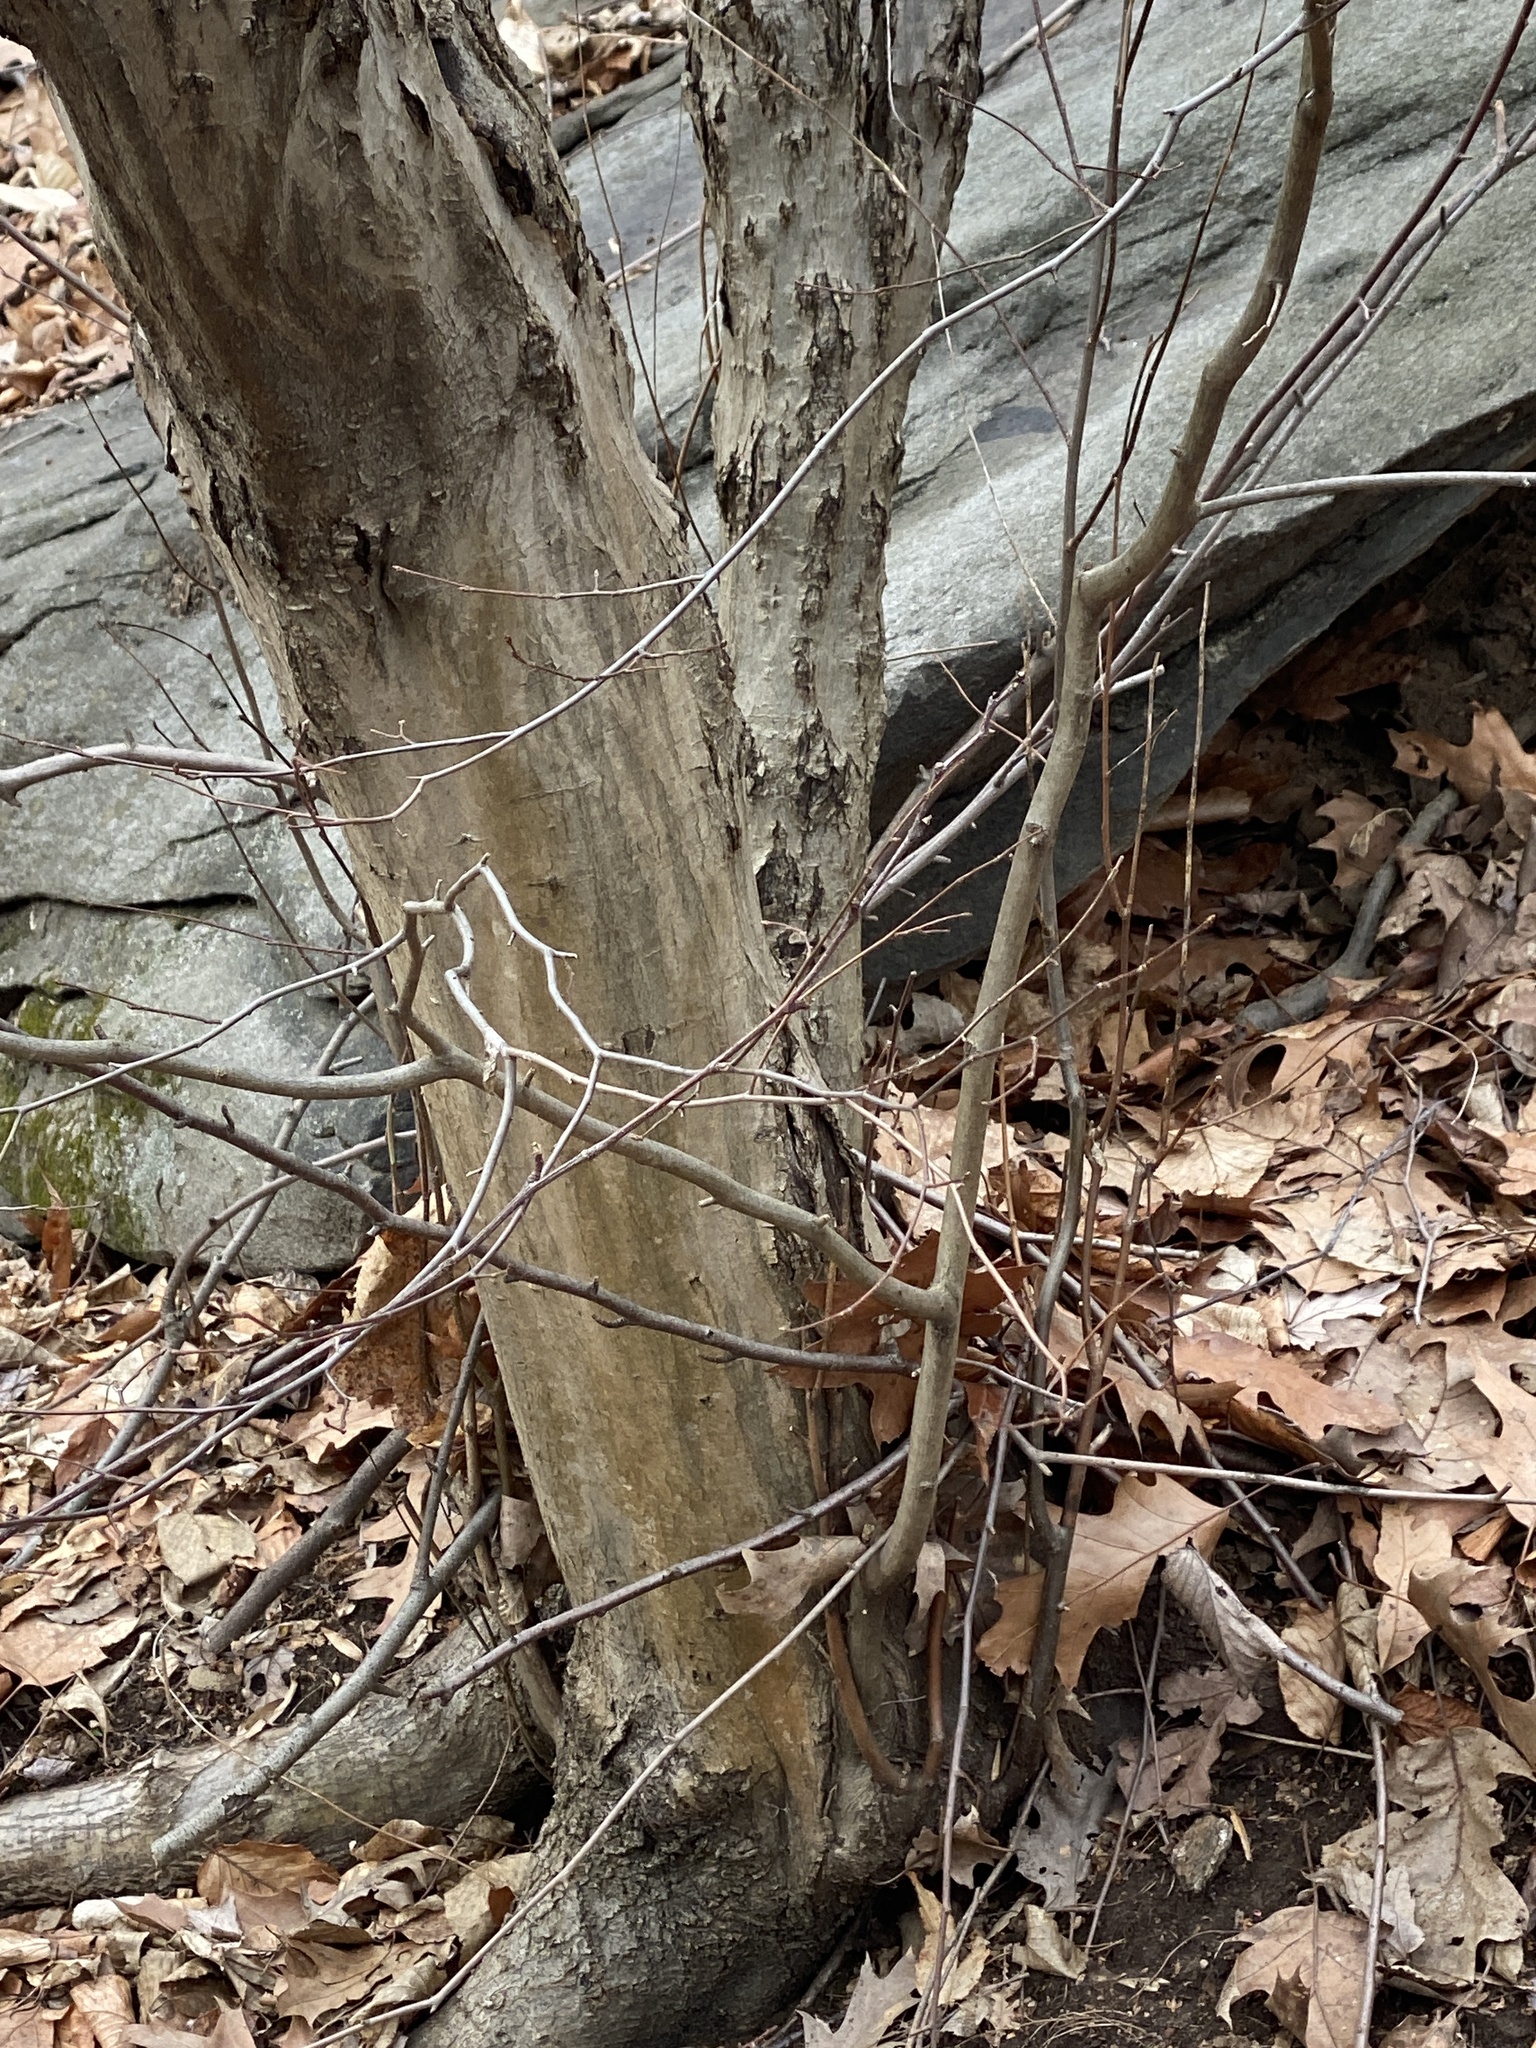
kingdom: Plantae
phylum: Tracheophyta
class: Magnoliopsida
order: Fagales
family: Betulaceae
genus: Carpinus
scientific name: Carpinus caroliniana
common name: American hornbeam
